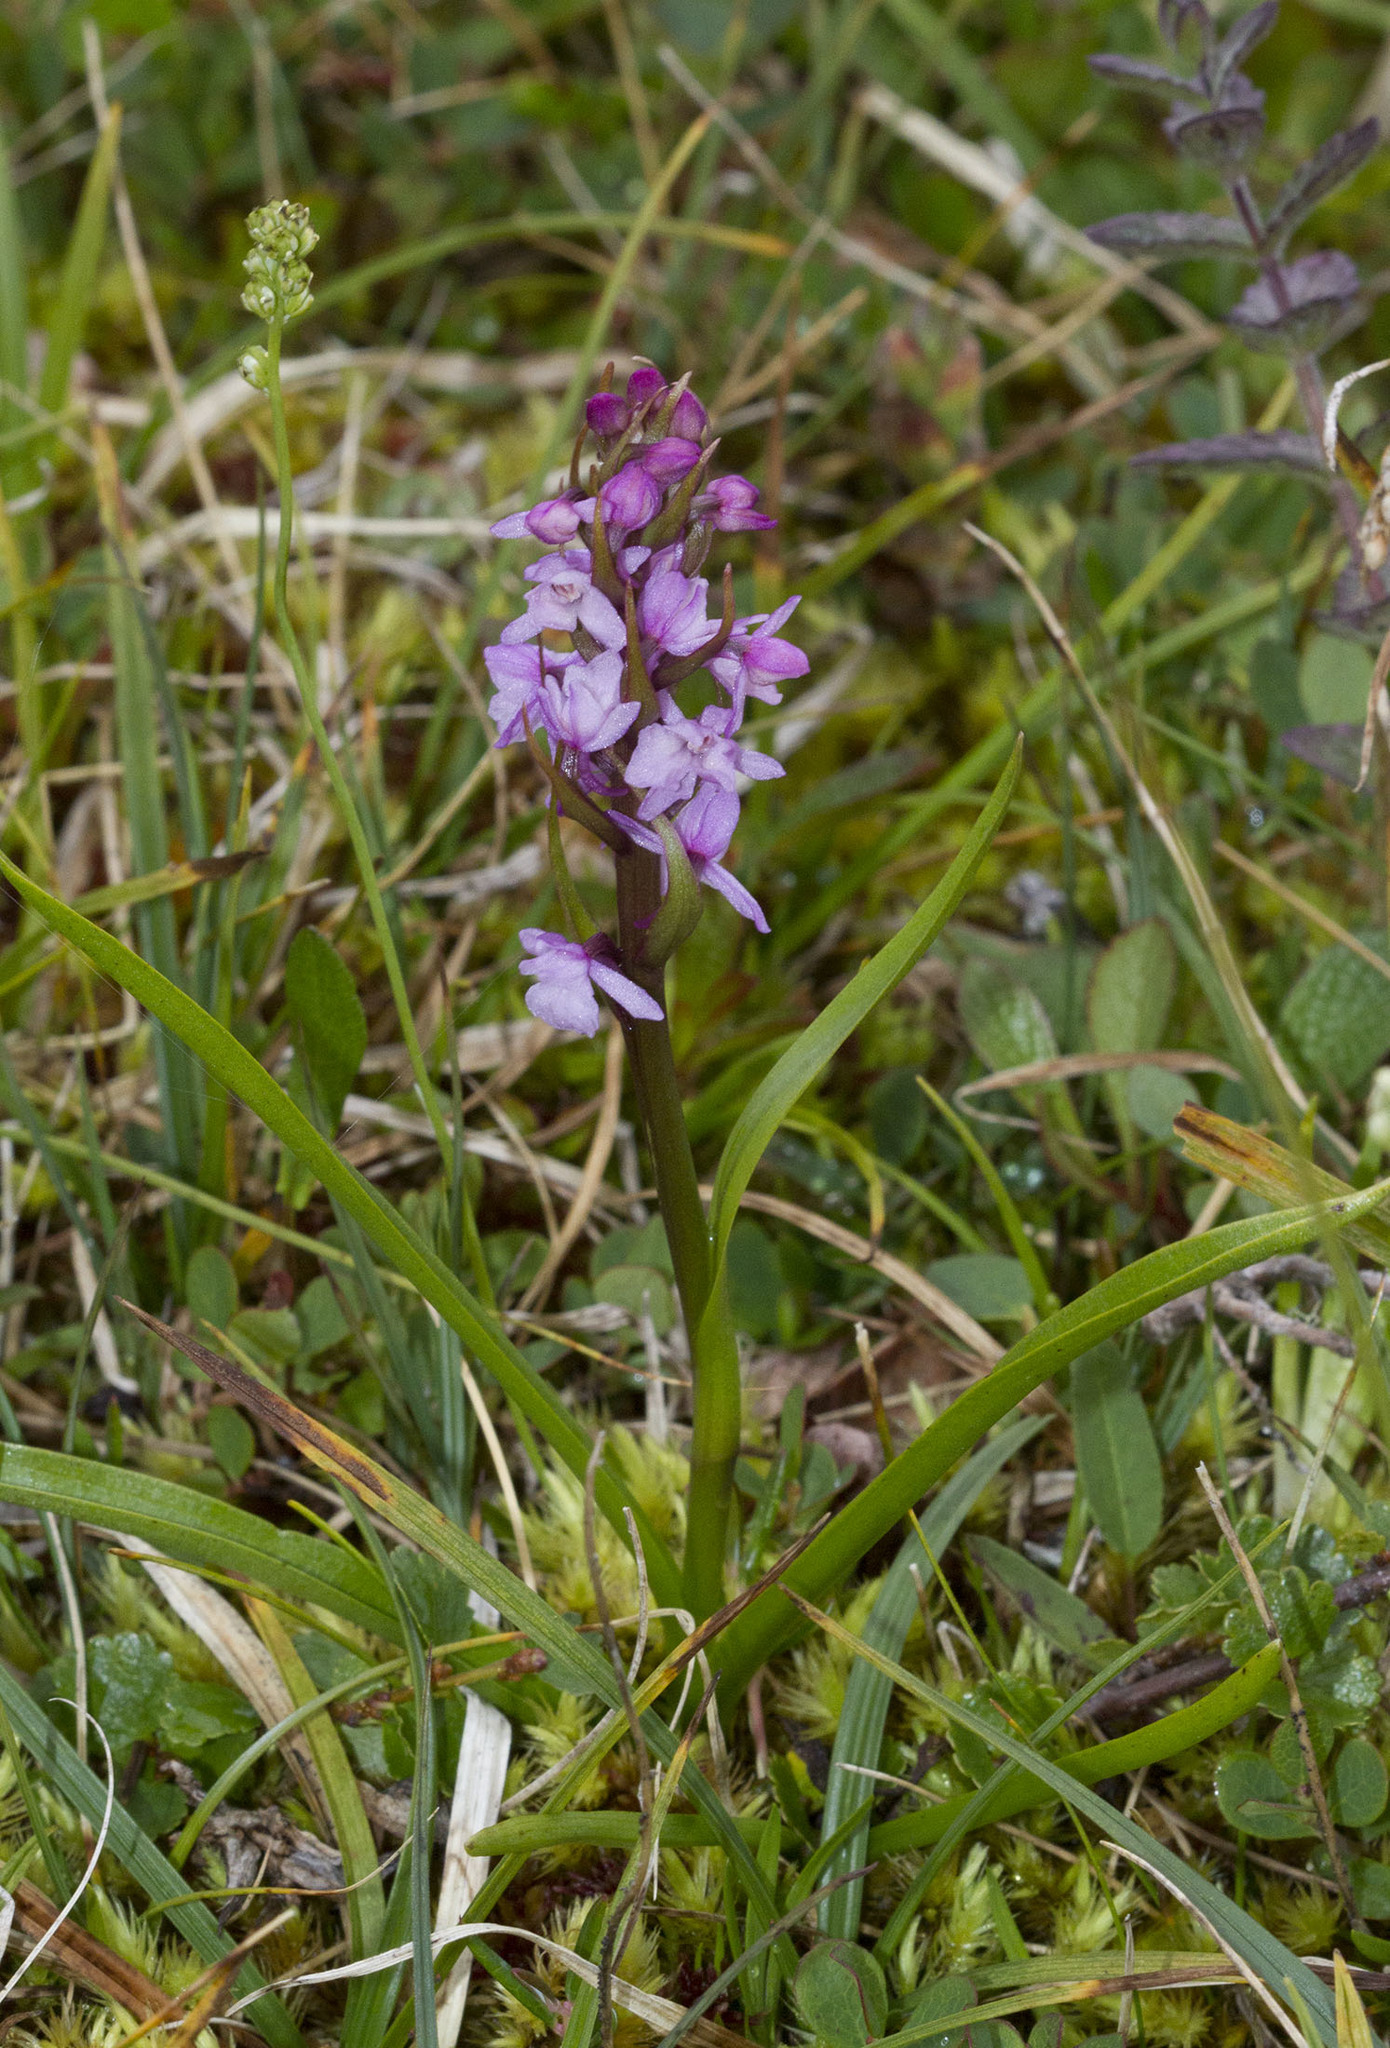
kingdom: Plantae
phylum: Tracheophyta
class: Liliopsida
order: Asparagales
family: Orchidaceae
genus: Gymnadenia
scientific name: Gymnadenia conopsea
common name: Fragrant orchid
